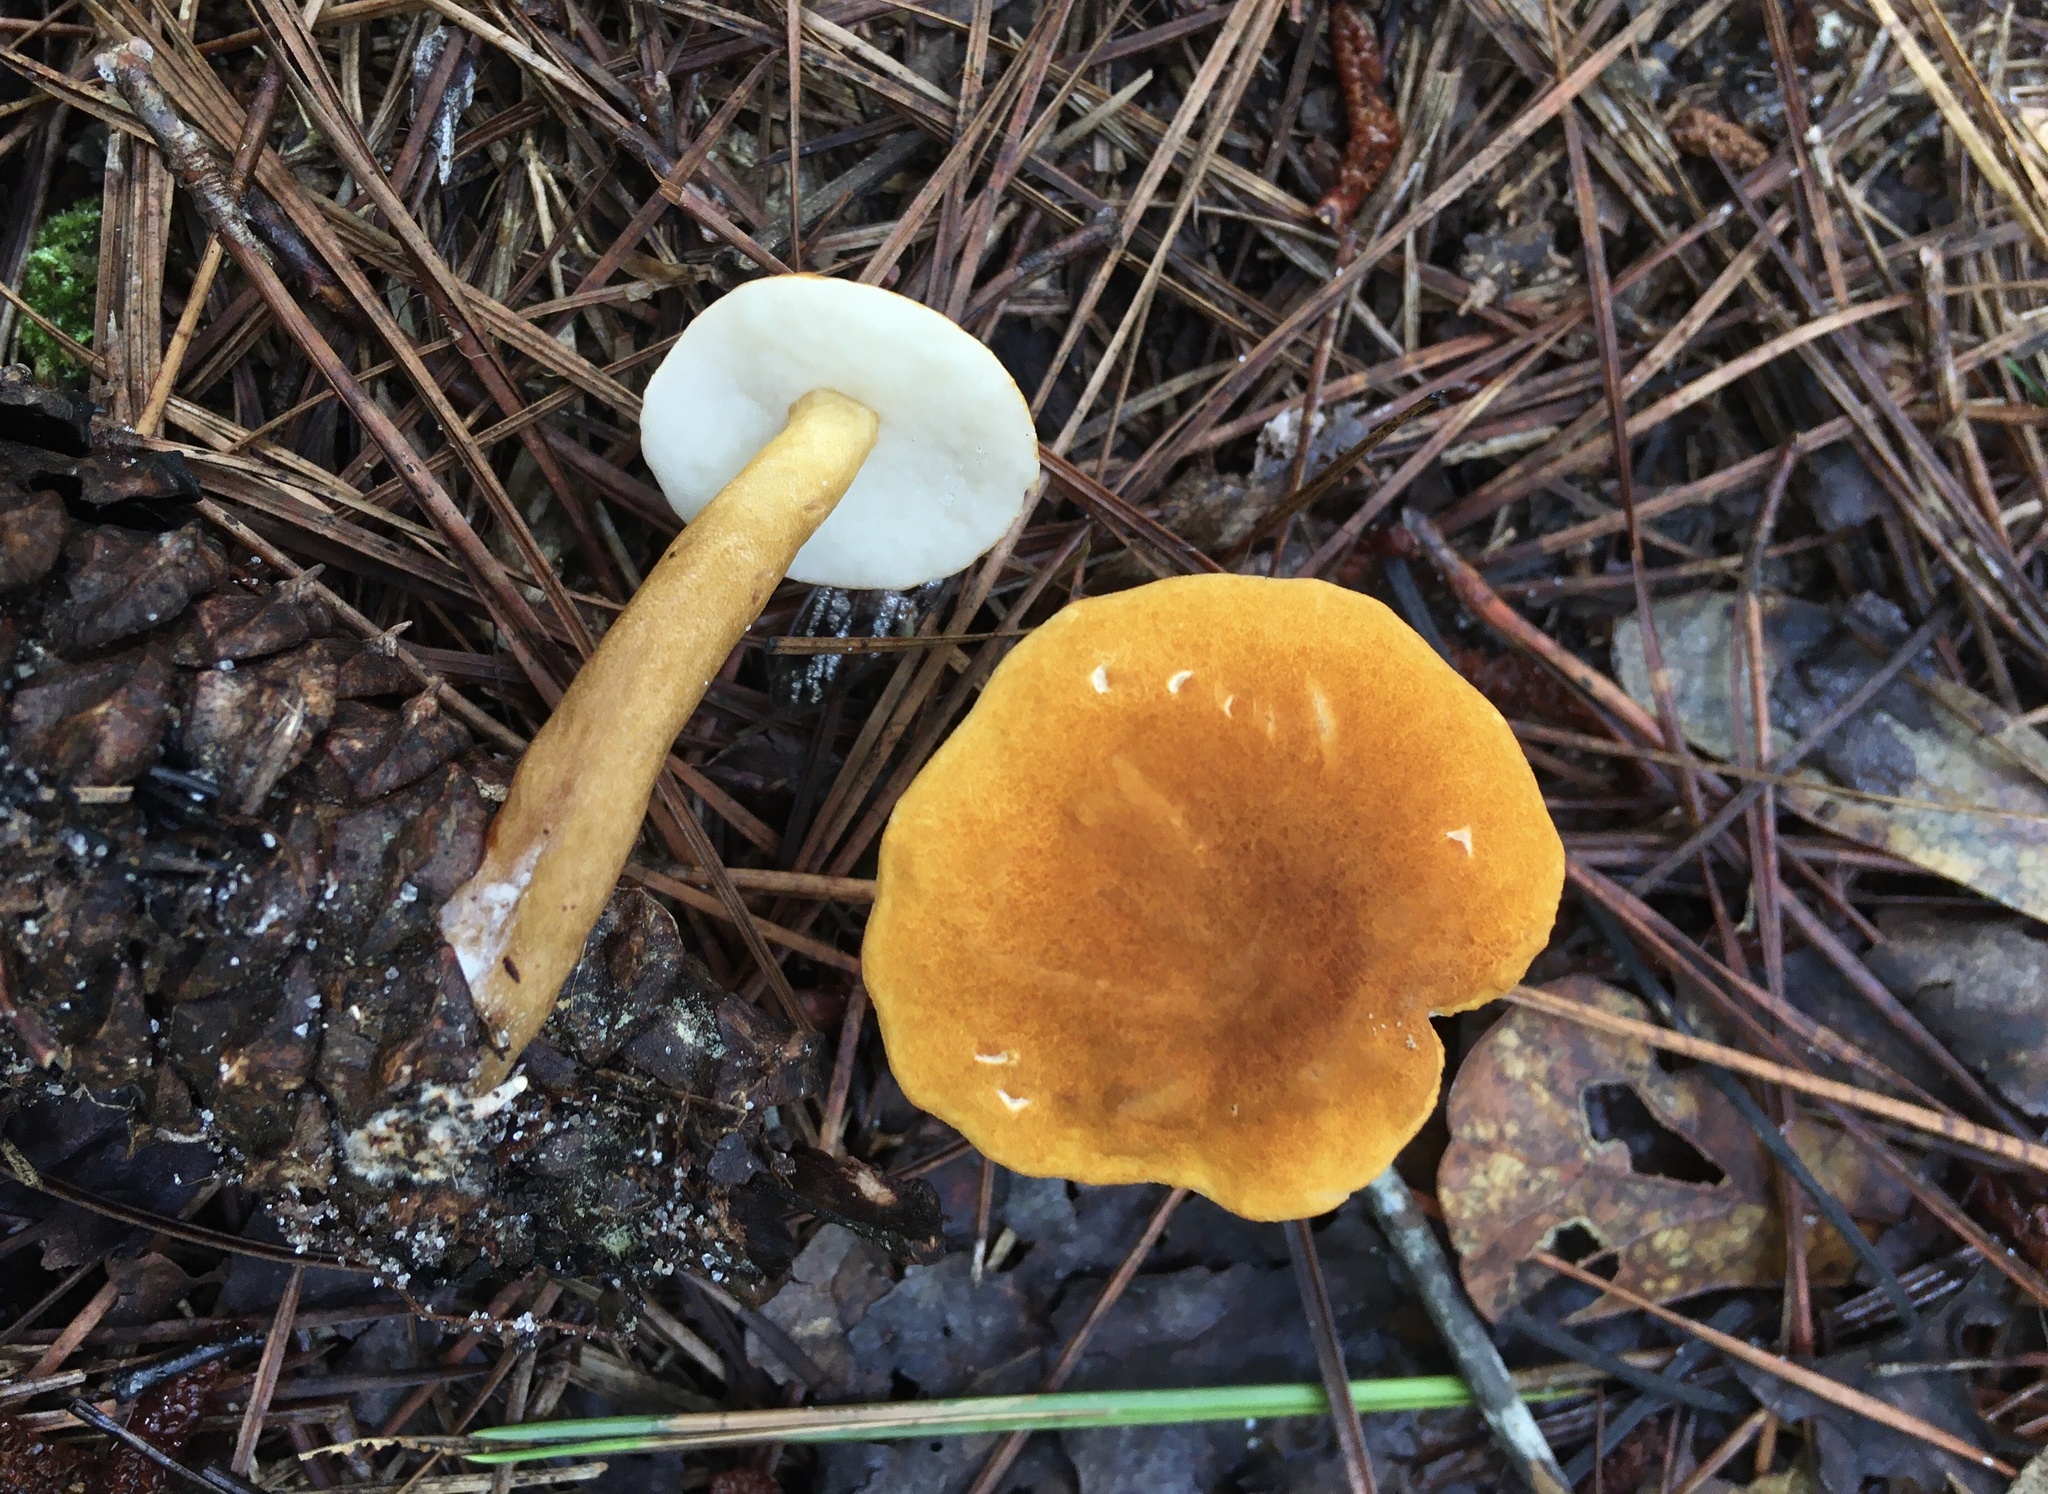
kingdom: Fungi
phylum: Basidiomycota
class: Agaricomycetes
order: Boletales
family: Gyroporaceae
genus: Gyroporus
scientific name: Gyroporus smithii
